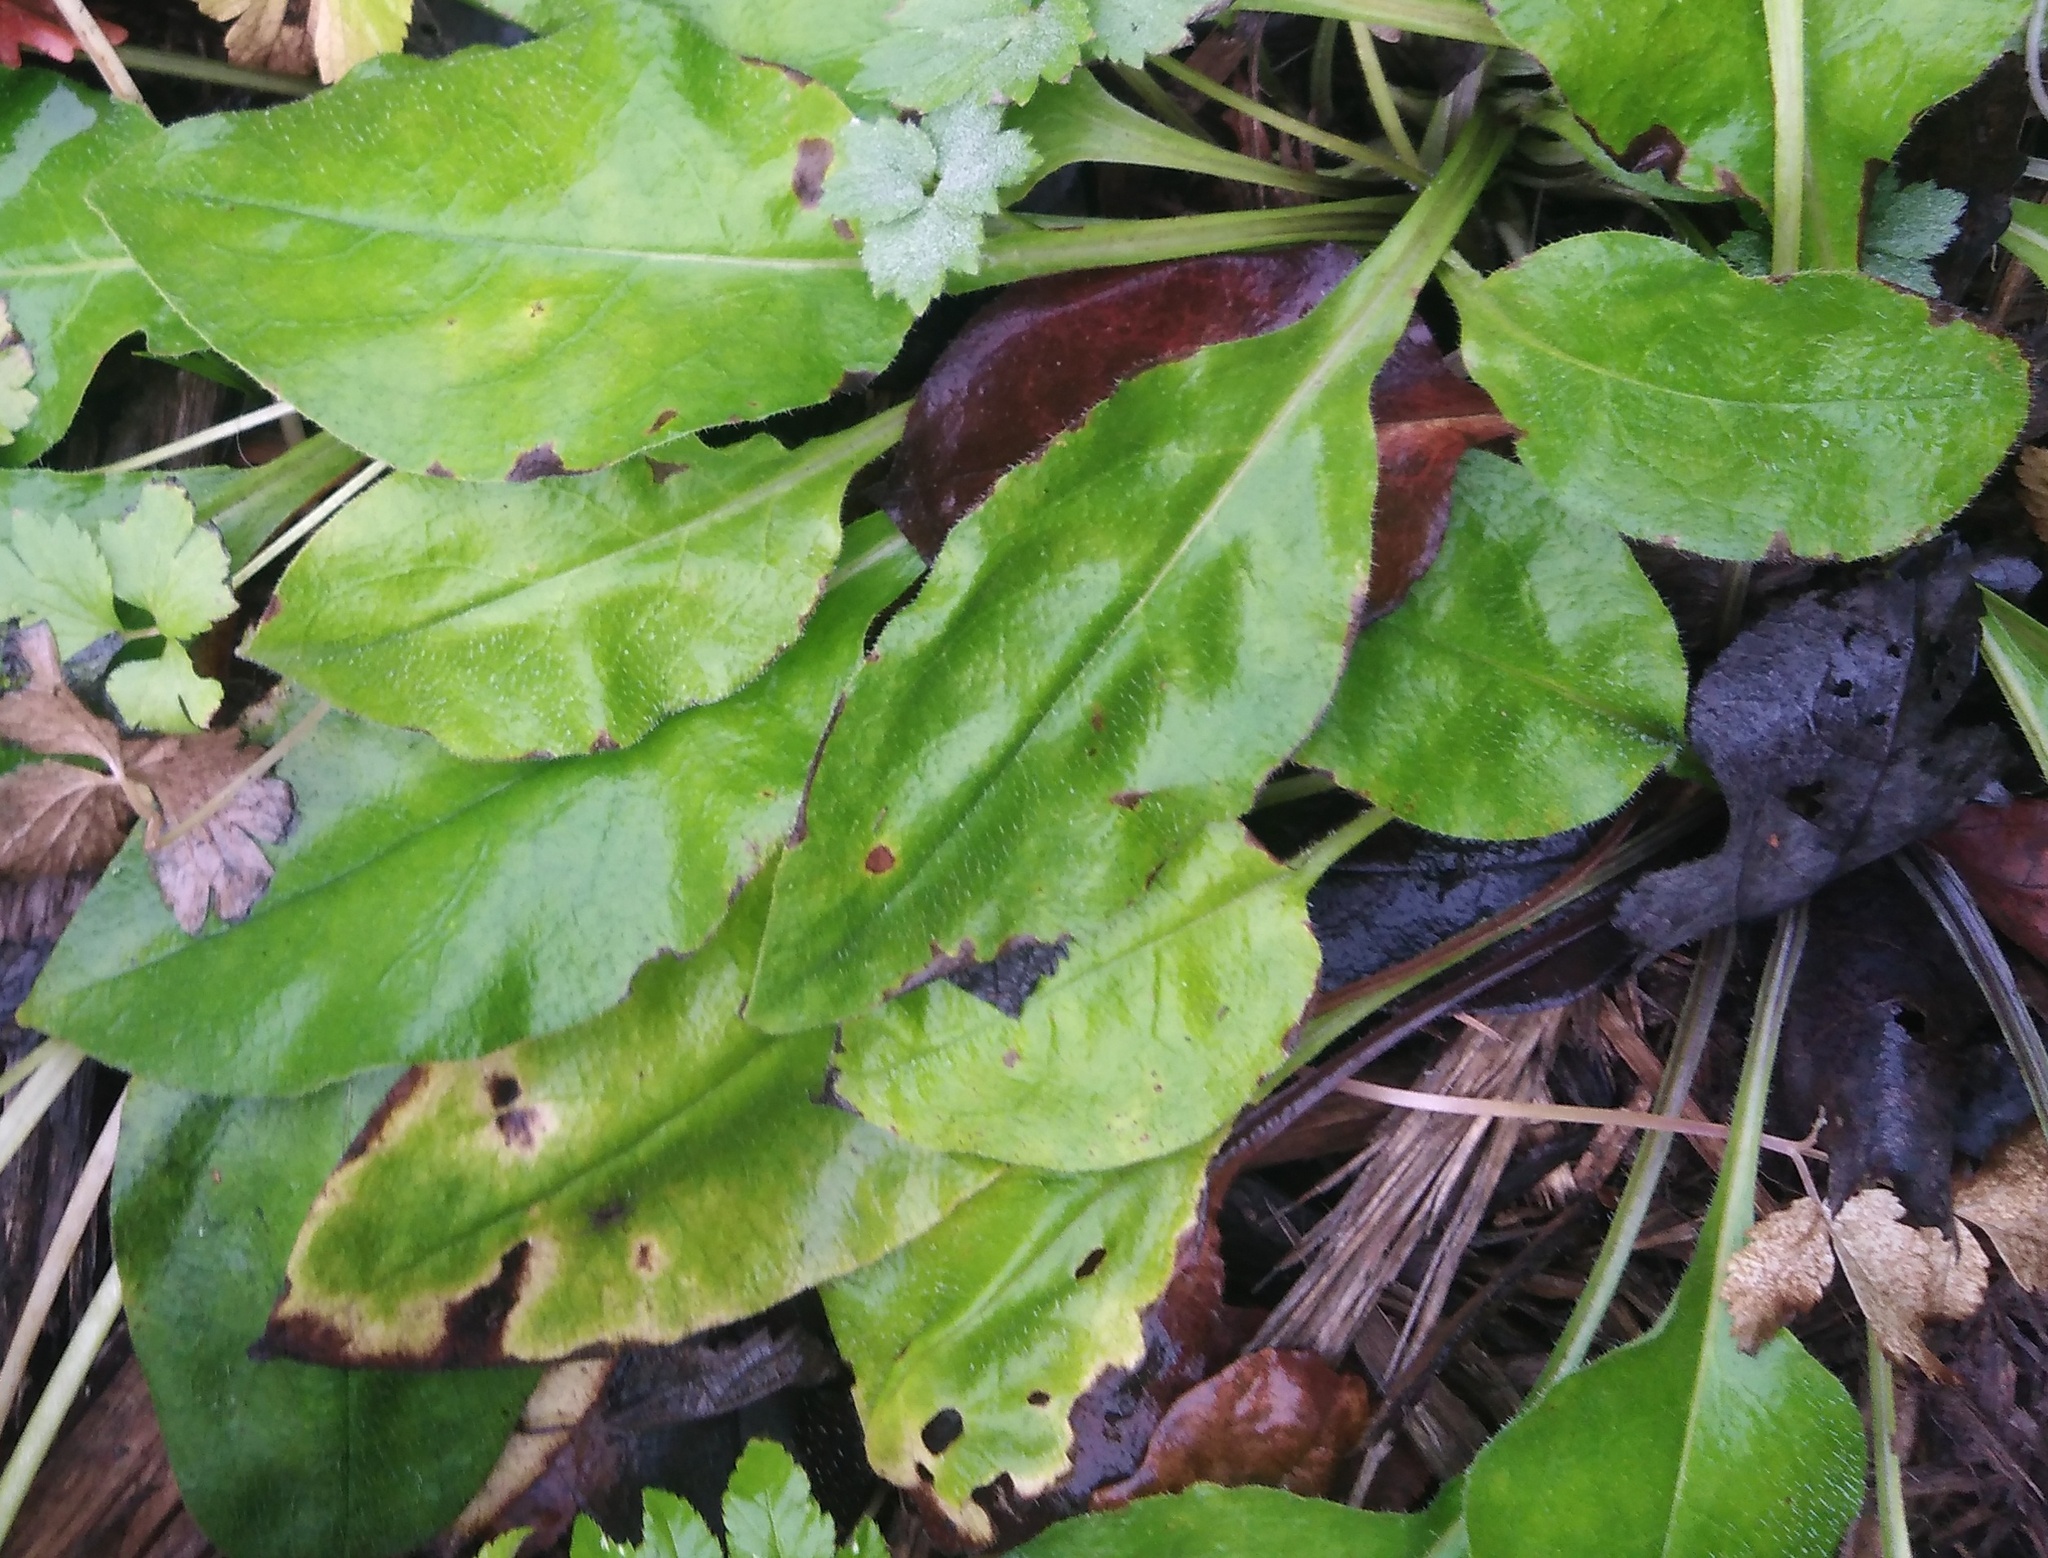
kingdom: Plantae
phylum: Tracheophyta
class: Magnoliopsida
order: Boraginales
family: Boraginaceae
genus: Pulmonaria
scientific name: Pulmonaria obscura
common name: Suffolk lungwort
